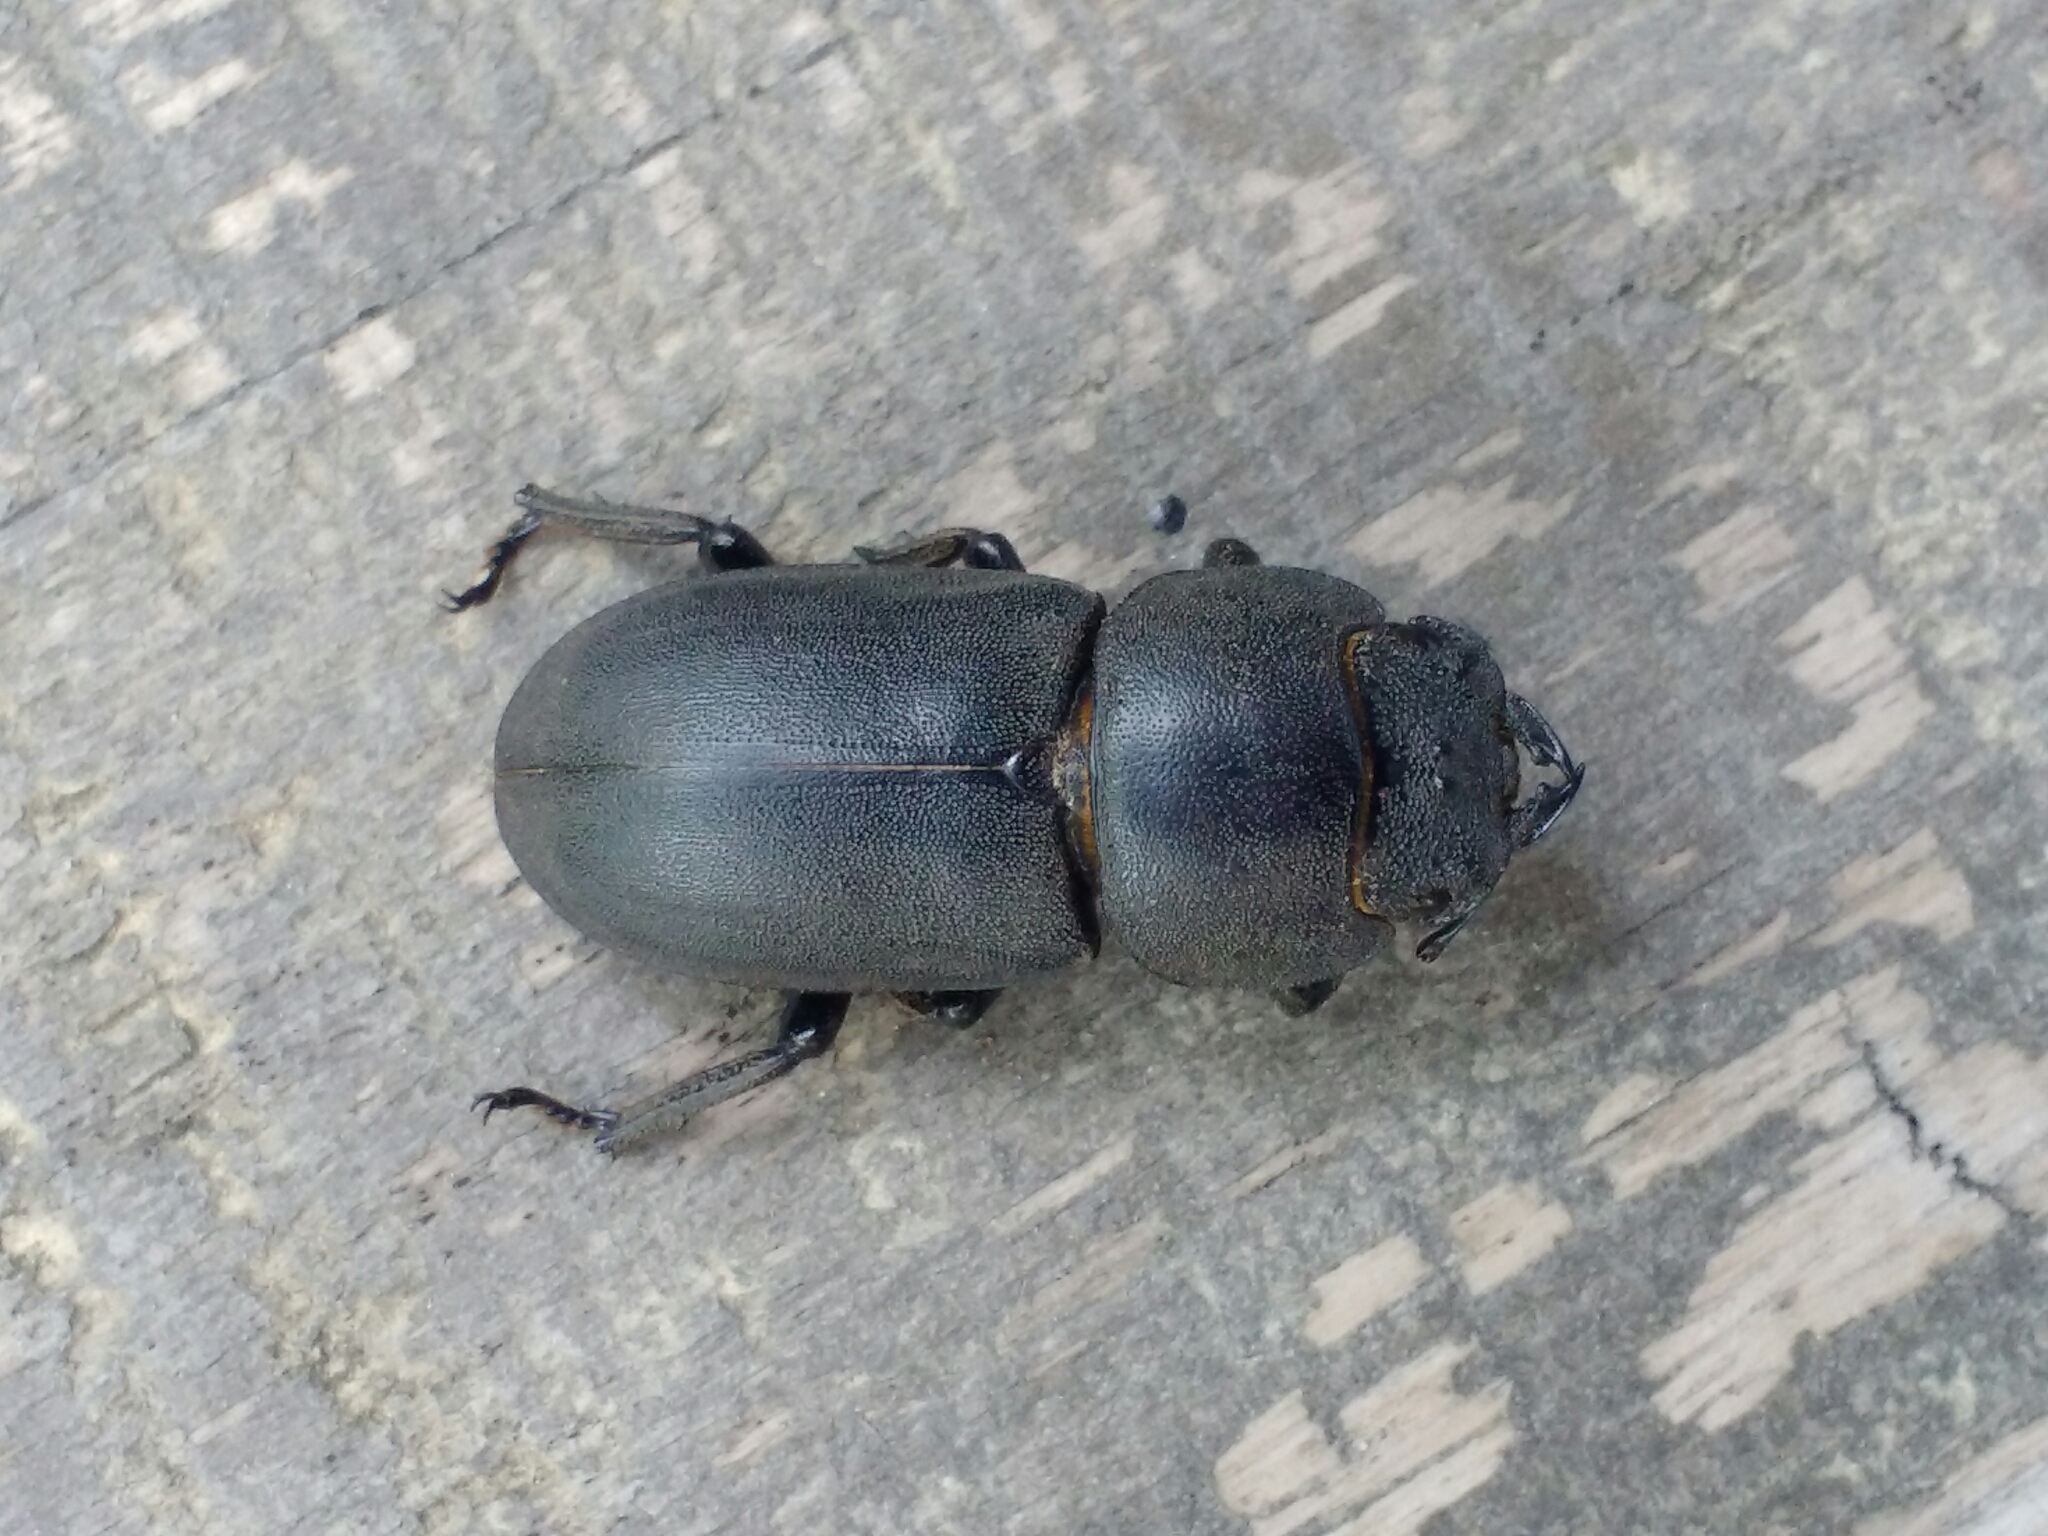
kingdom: Animalia
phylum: Arthropoda
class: Insecta
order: Coleoptera
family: Lucanidae
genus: Dorcus
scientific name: Dorcus parallelipipedus
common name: Lesser stag beetle
